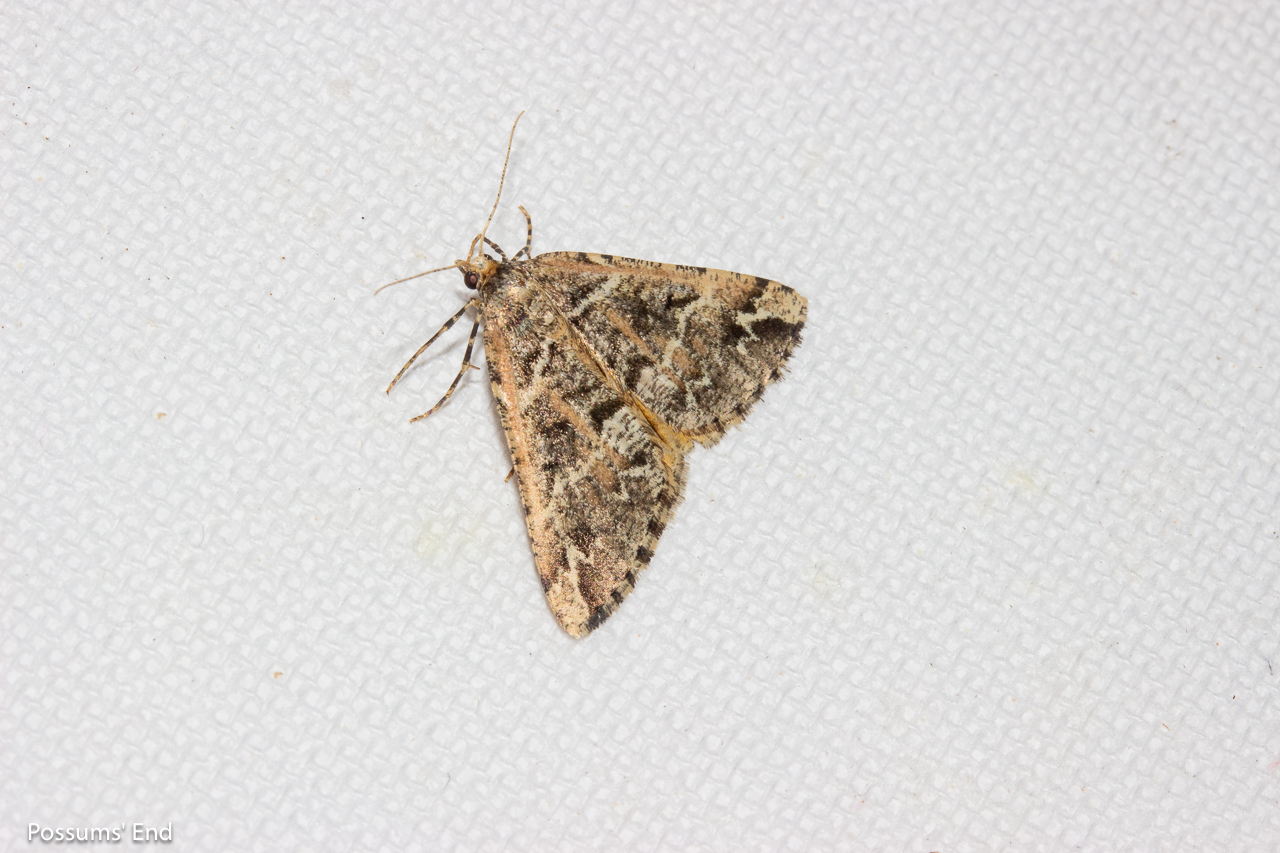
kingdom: Animalia
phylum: Arthropoda
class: Insecta
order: Lepidoptera
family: Geometridae
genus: Pseudocoremia
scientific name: Pseudocoremia melinata
